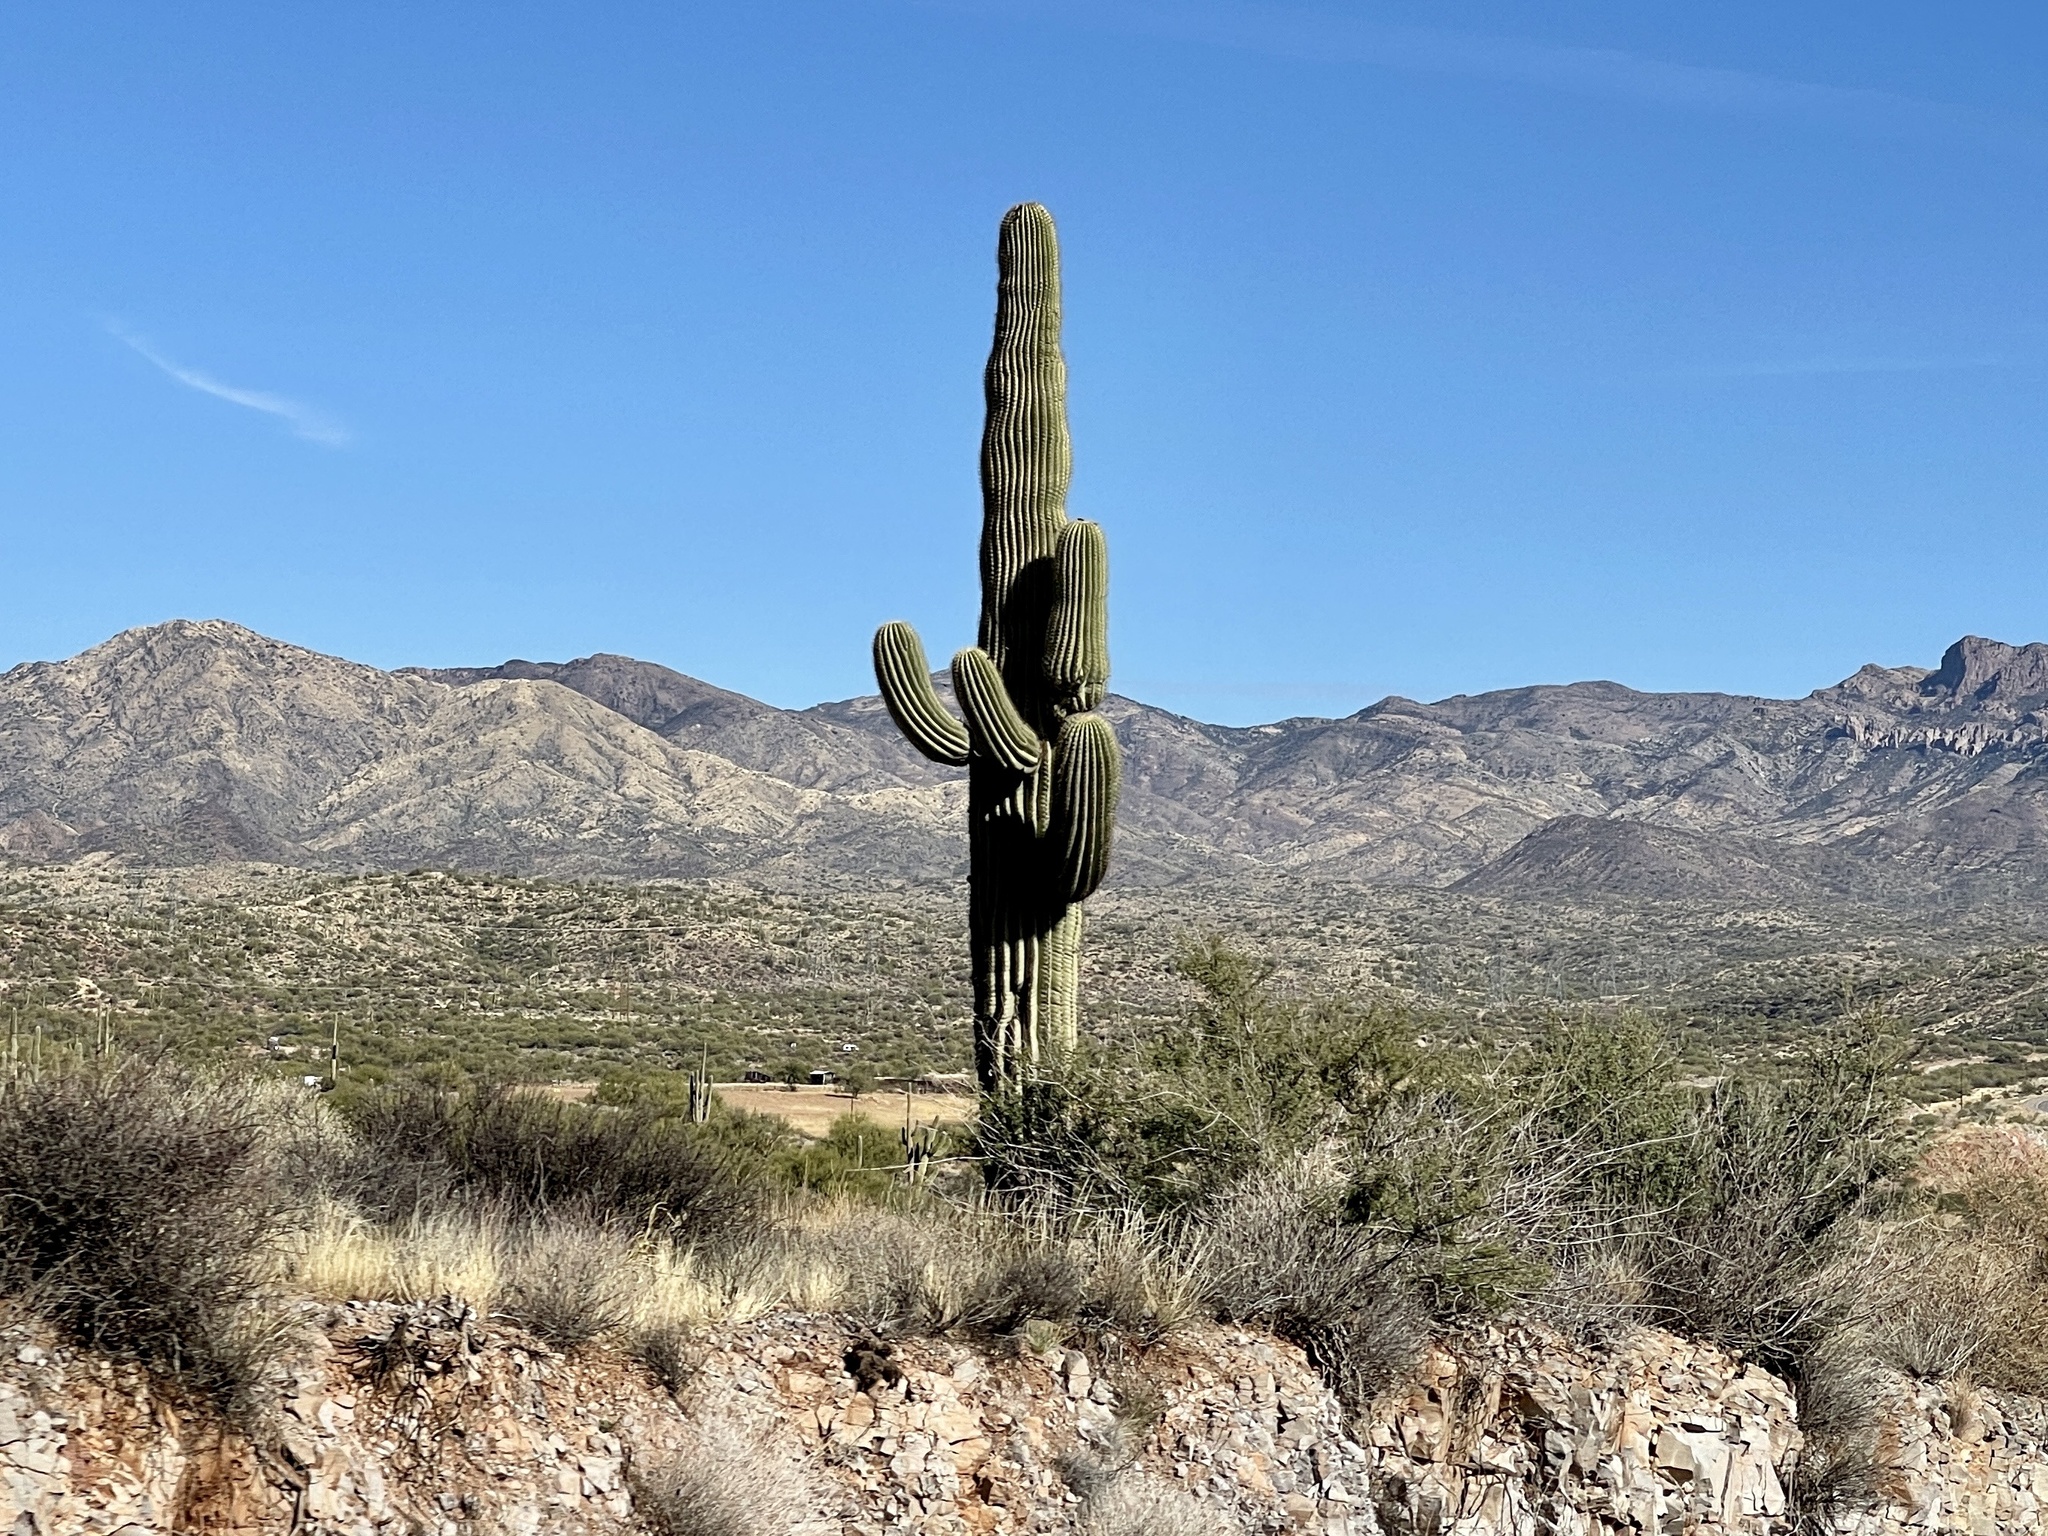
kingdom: Plantae
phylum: Tracheophyta
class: Magnoliopsida
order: Caryophyllales
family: Cactaceae
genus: Carnegiea
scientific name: Carnegiea gigantea
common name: Saguaro
